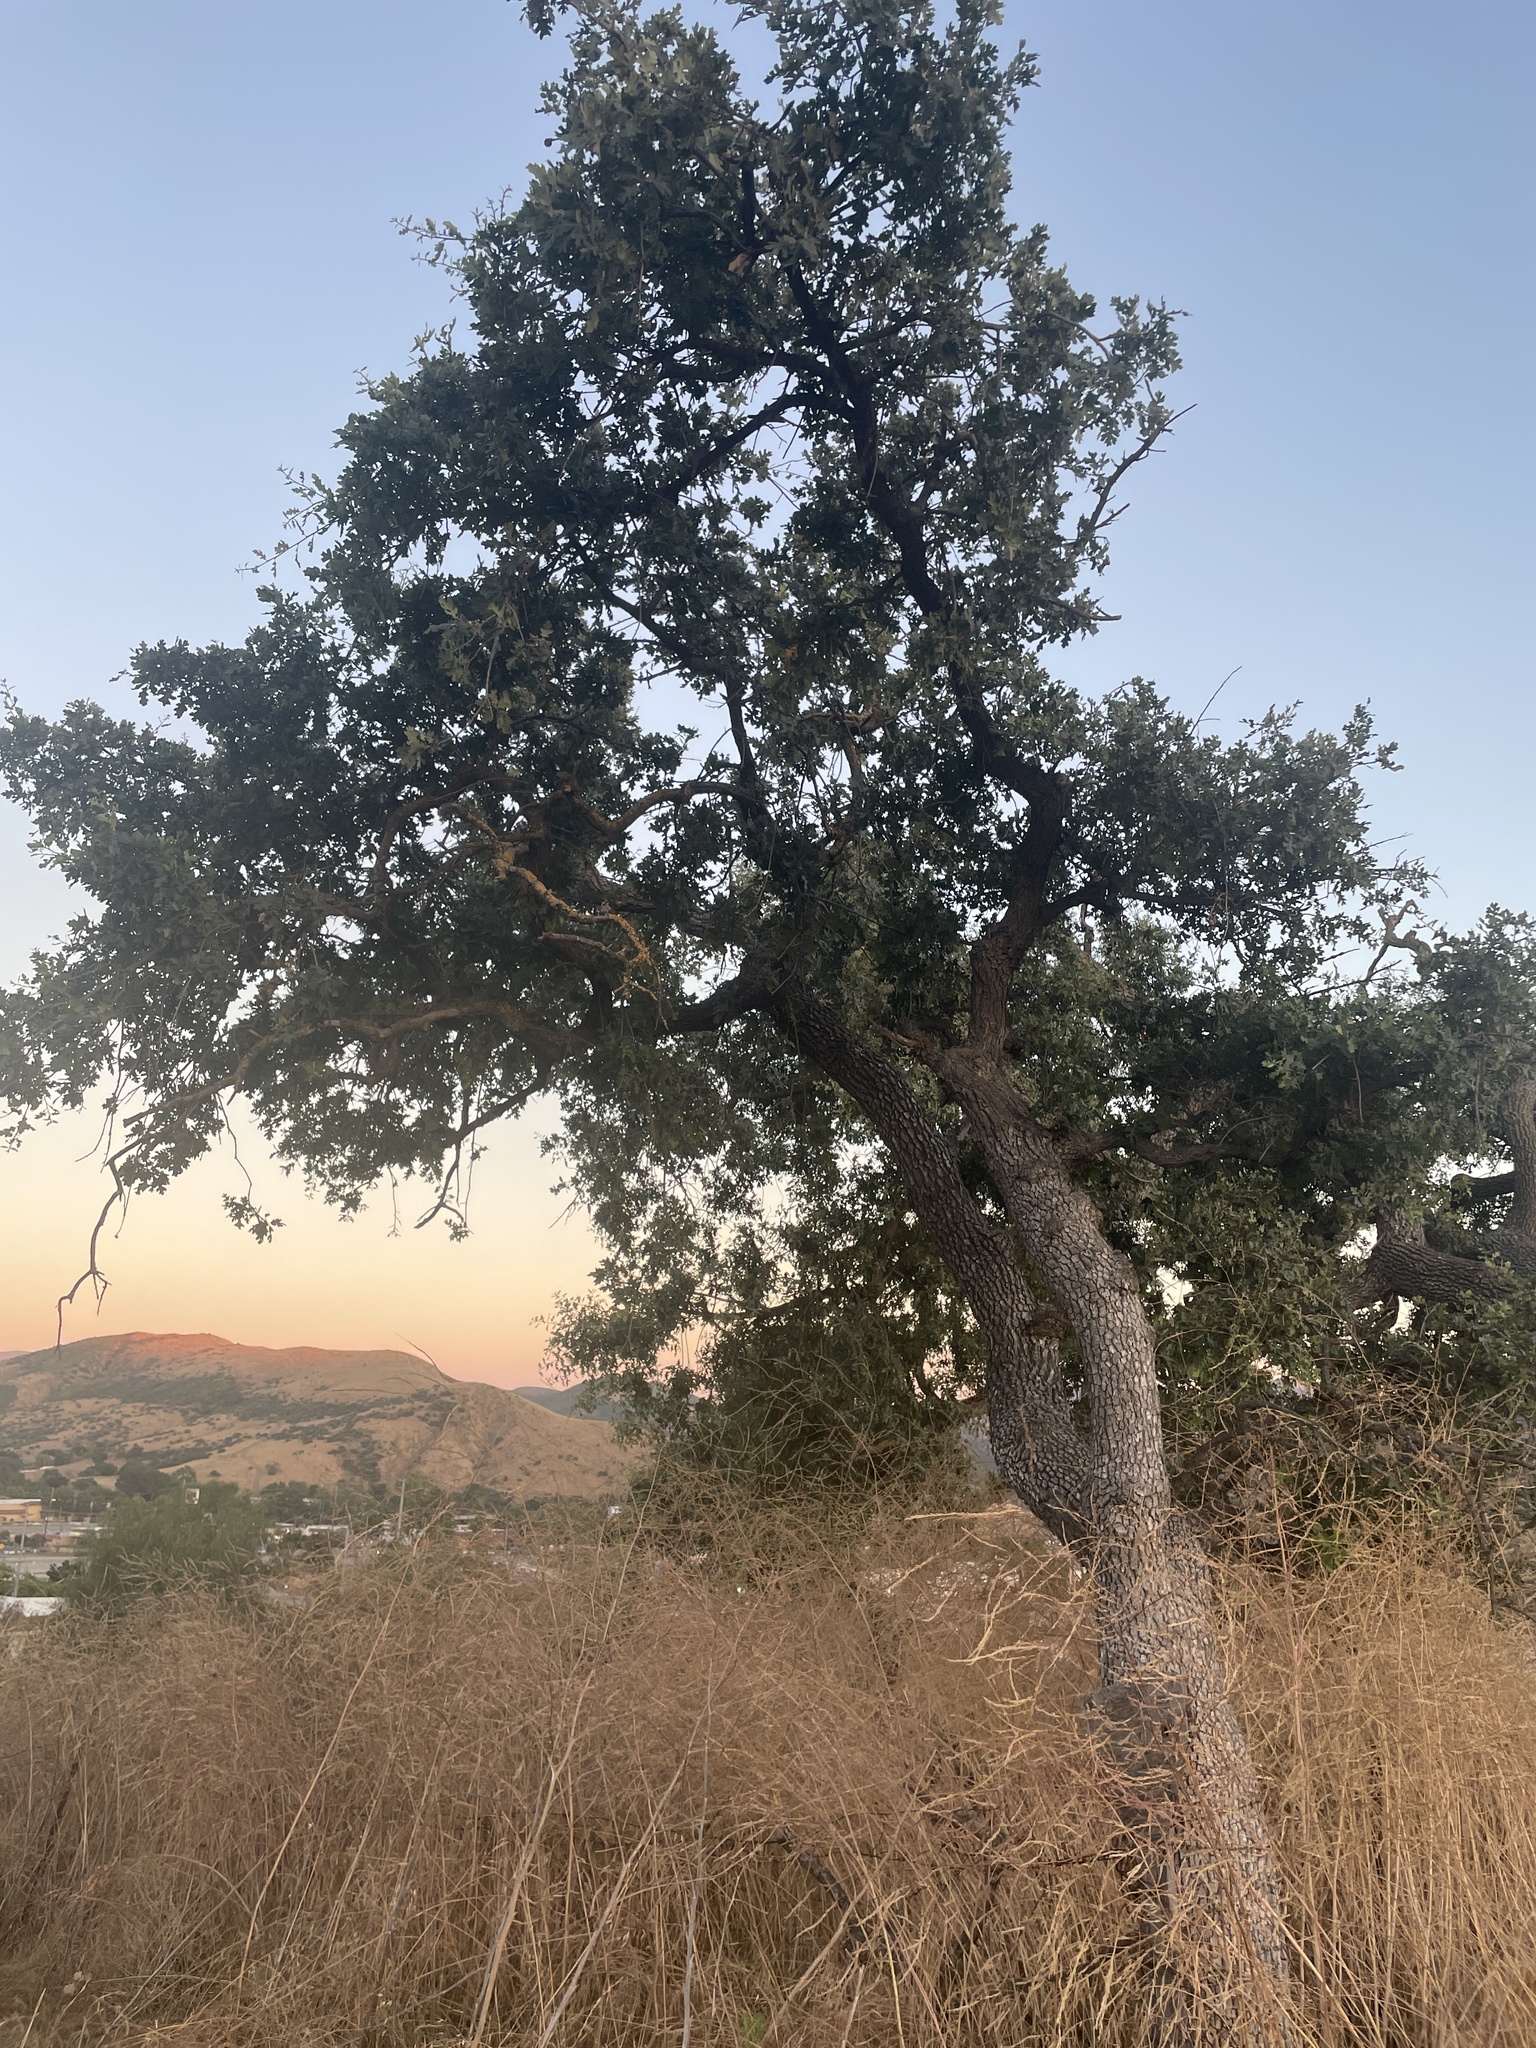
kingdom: Plantae
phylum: Tracheophyta
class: Magnoliopsida
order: Fagales
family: Fagaceae
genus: Quercus
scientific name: Quercus lobata
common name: Valley oak
